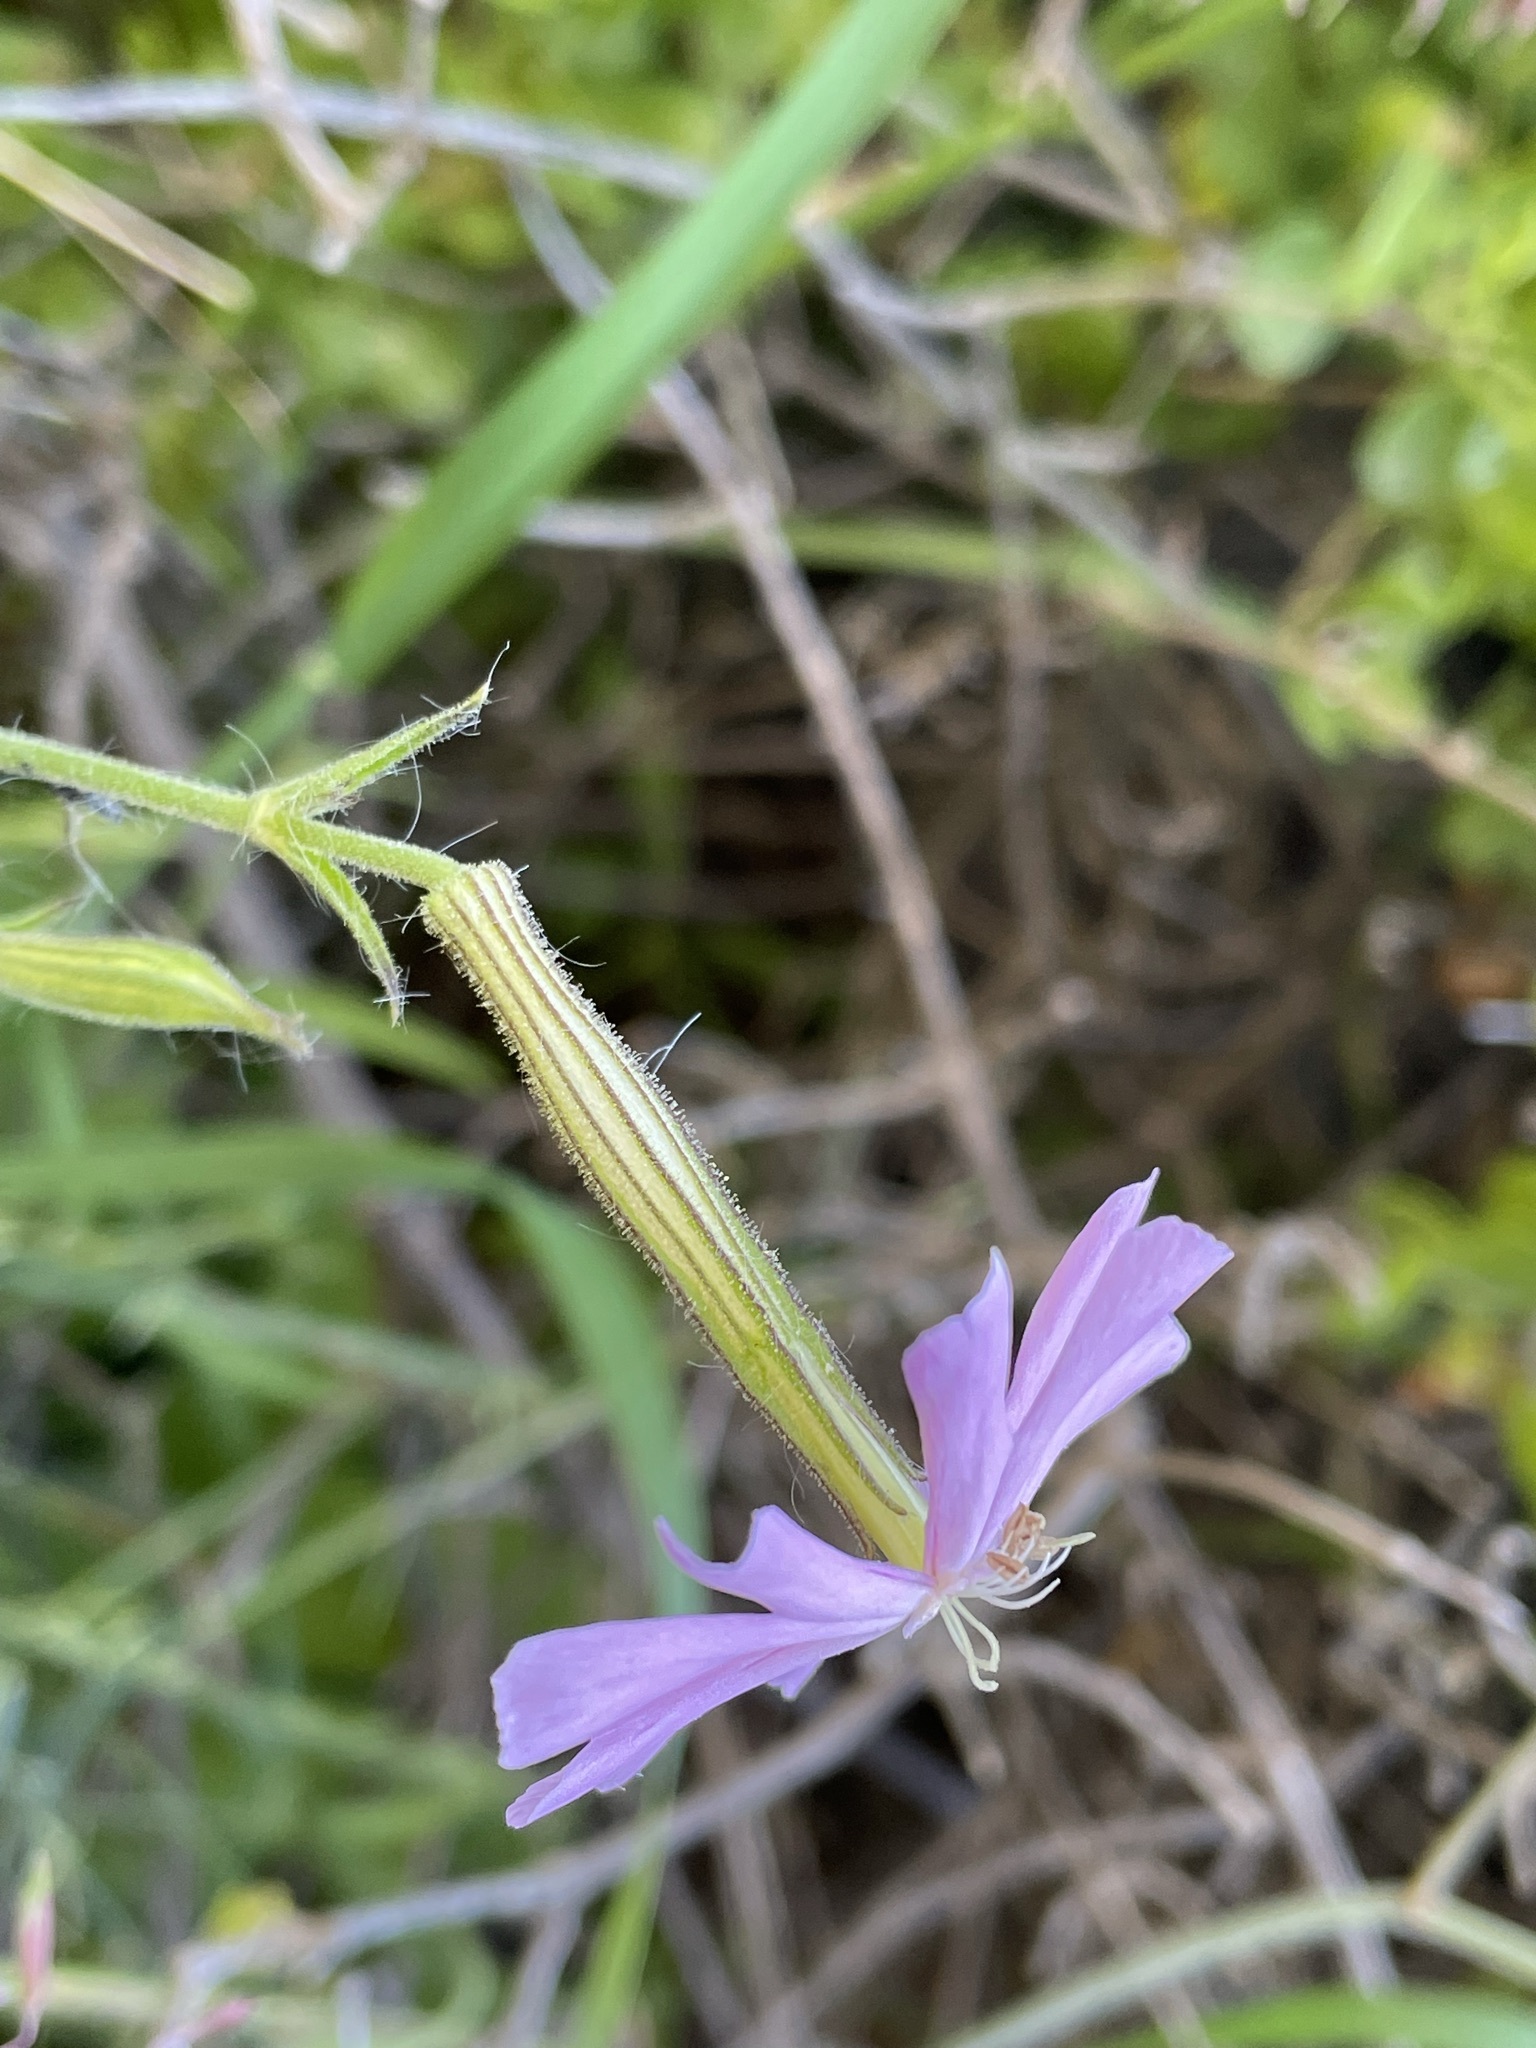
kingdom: Plantae
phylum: Tracheophyta
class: Magnoliopsida
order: Caryophyllales
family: Caryophyllaceae
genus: Silene
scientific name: Silene undulata
